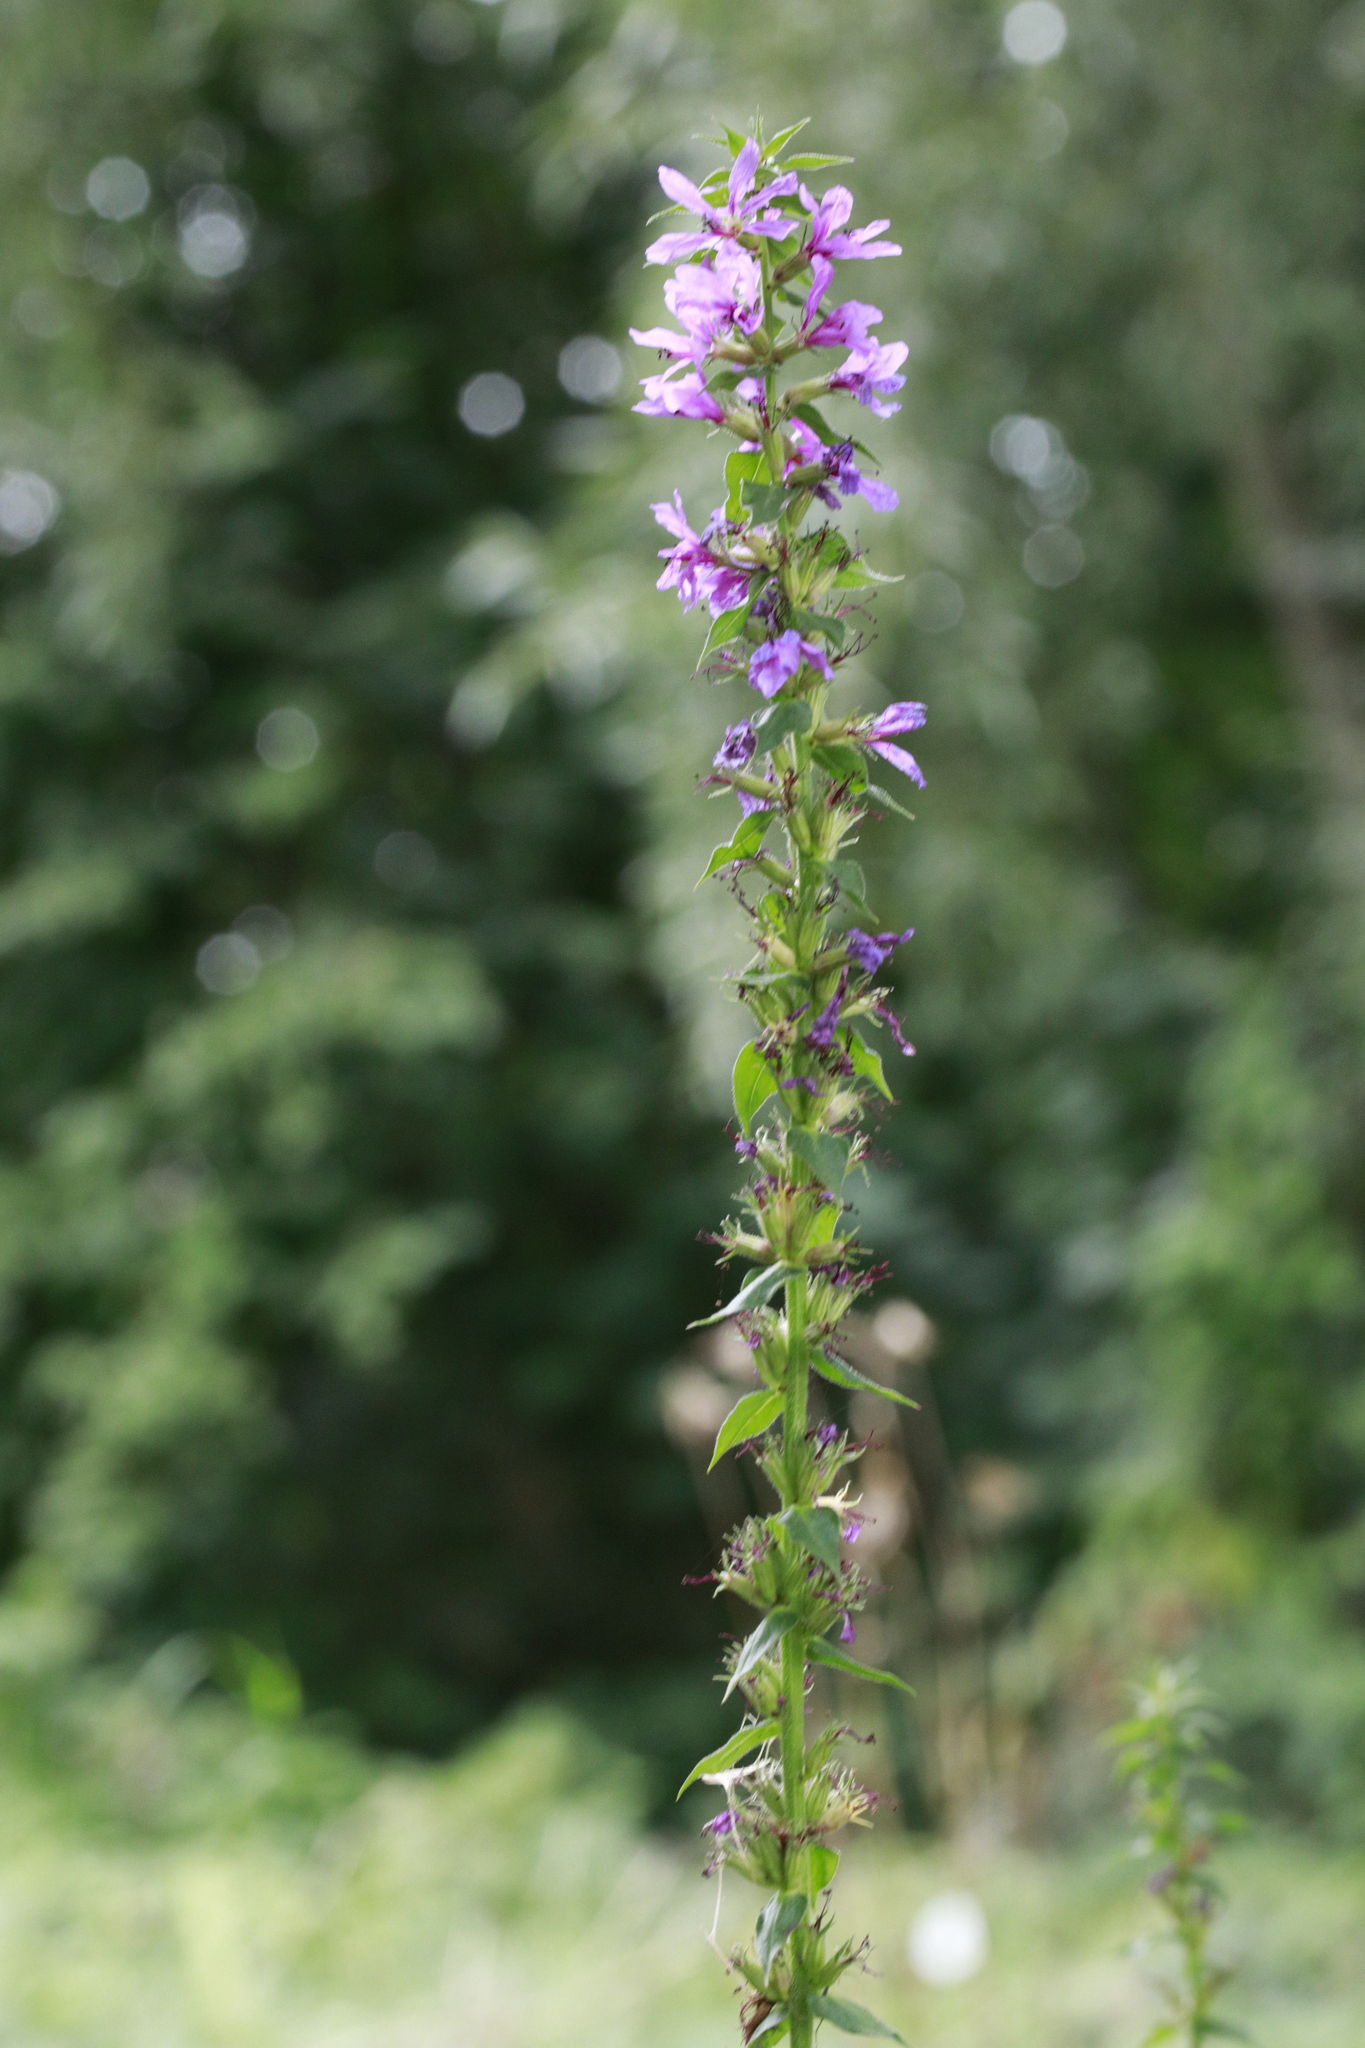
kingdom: Plantae
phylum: Tracheophyta
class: Magnoliopsida
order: Myrtales
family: Lythraceae
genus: Lythrum
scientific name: Lythrum salicaria
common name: Purple loosestrife
